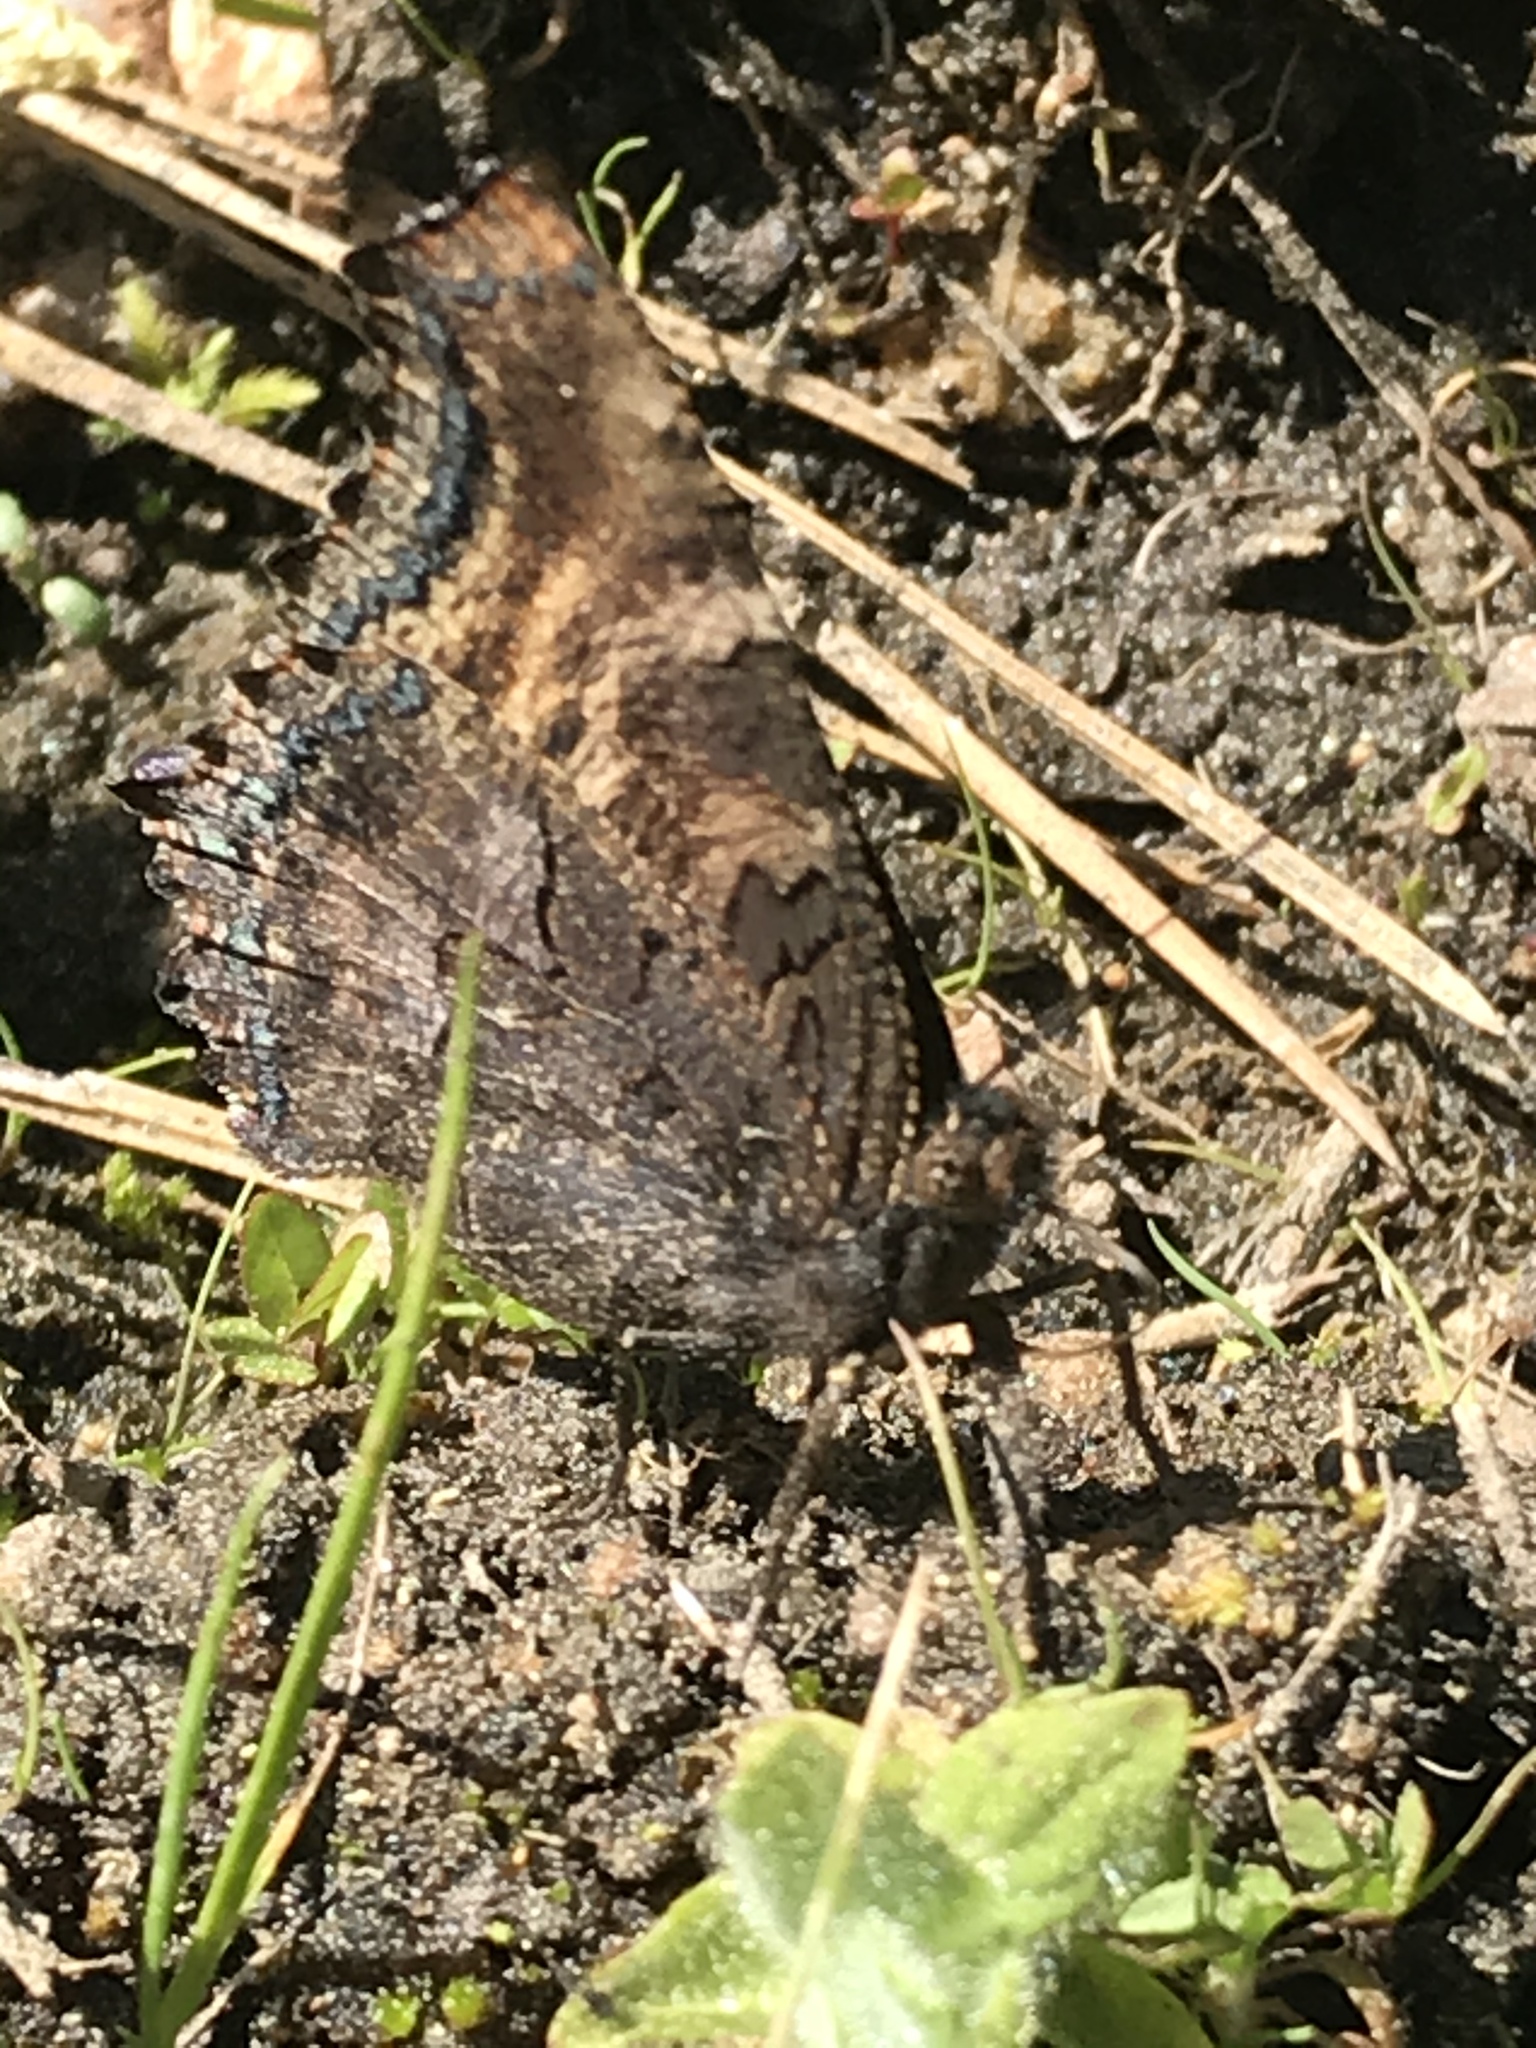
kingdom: Animalia
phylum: Arthropoda
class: Insecta
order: Lepidoptera
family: Nymphalidae
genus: Nymphalis
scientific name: Nymphalis californica
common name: California tortoiseshell
